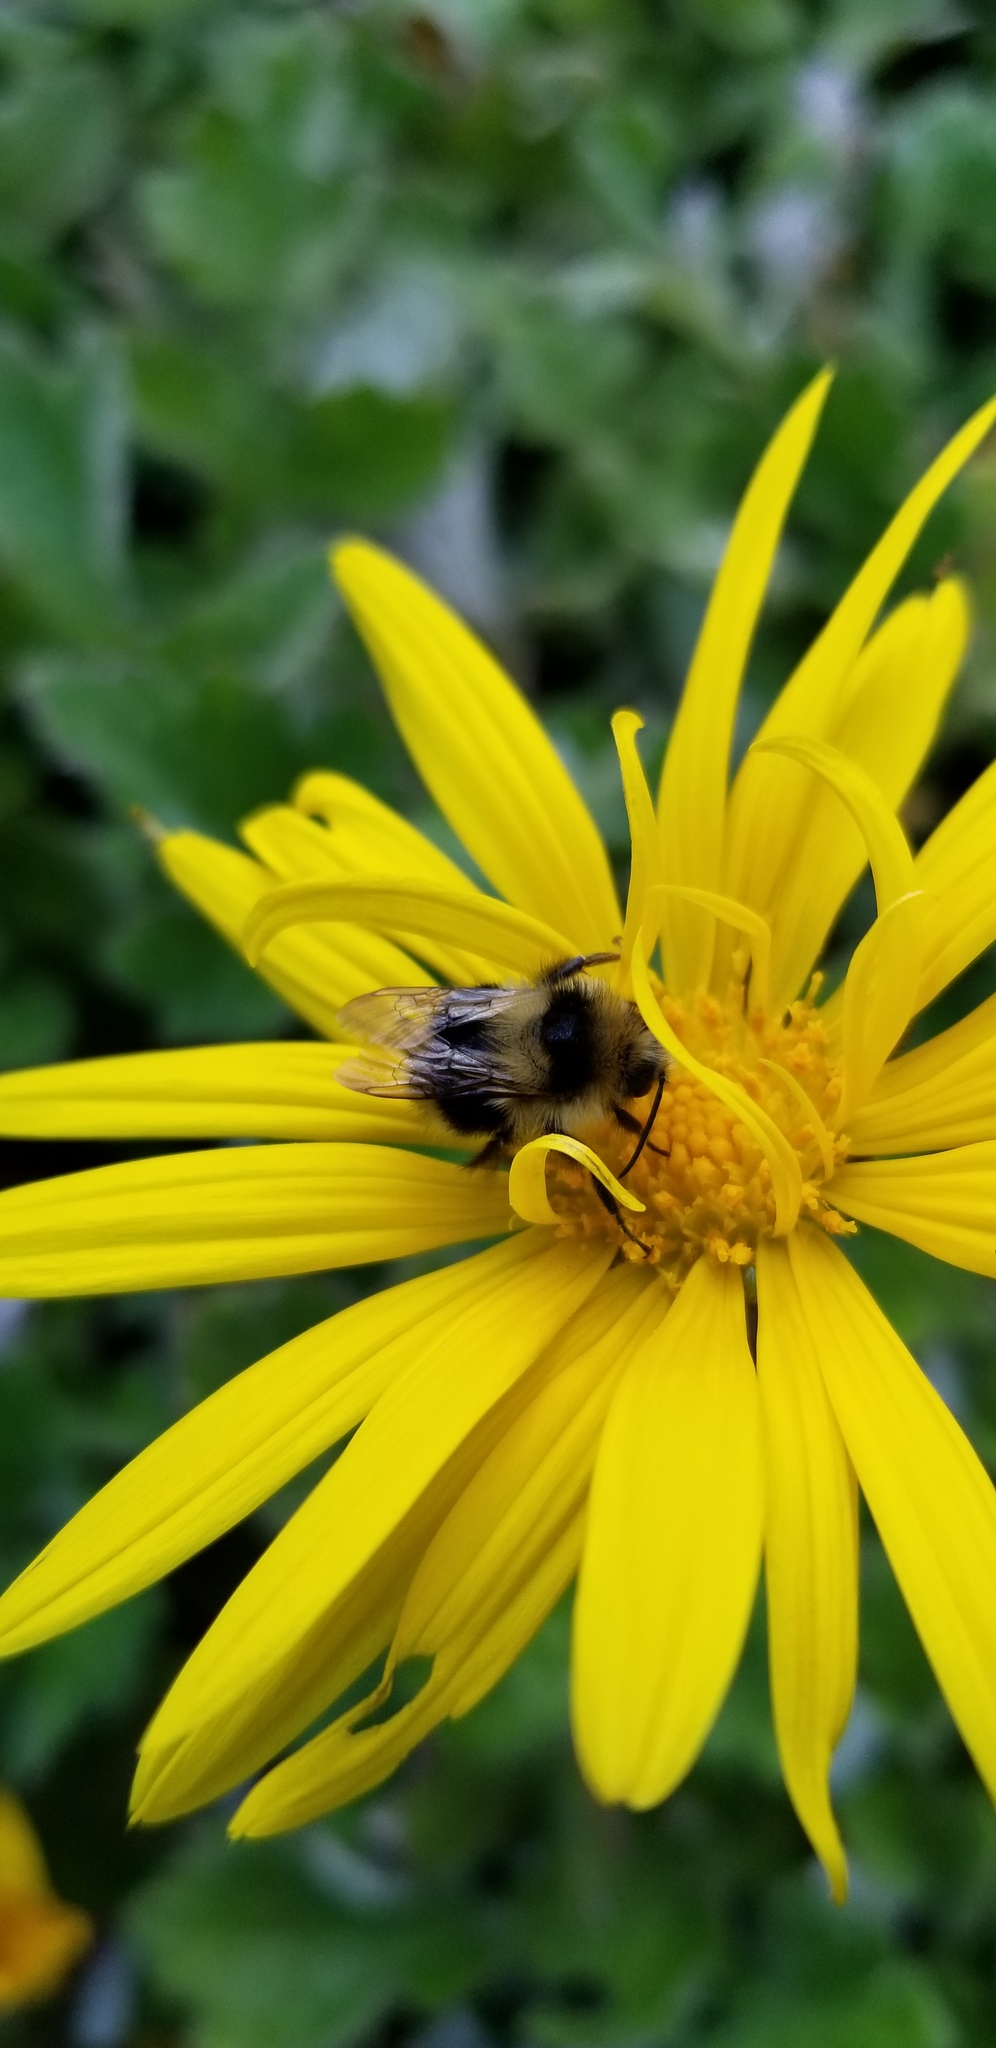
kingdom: Animalia
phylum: Arthropoda
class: Insecta
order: Hymenoptera
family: Apidae
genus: Bombus
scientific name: Bombus melanopygus
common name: Black tail bumble bee
